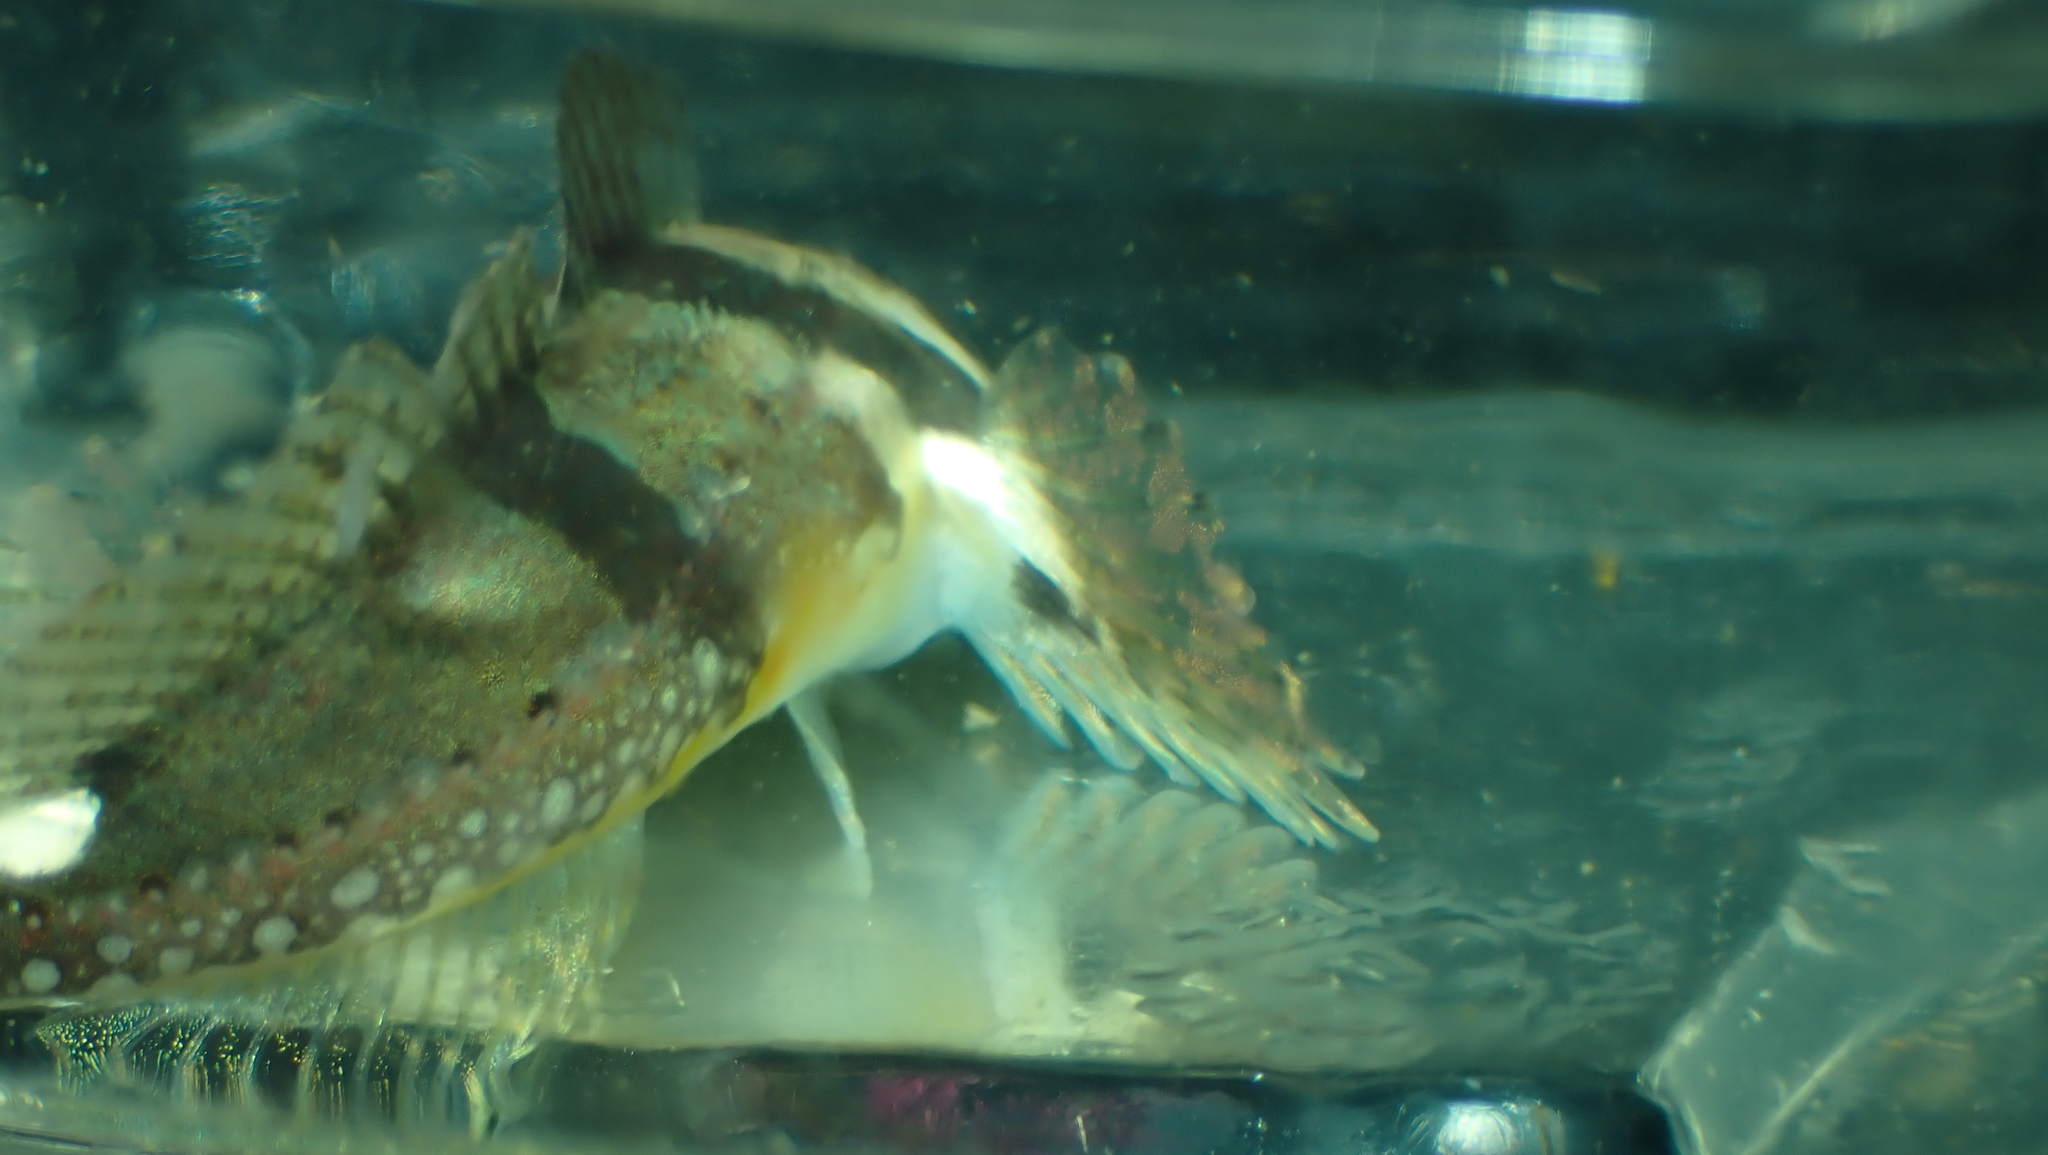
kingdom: Animalia
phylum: Chordata
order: Scorpaeniformes
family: Cottidae
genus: Artedius
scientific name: Artedius lateralis
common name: Smooth-head sculpin
